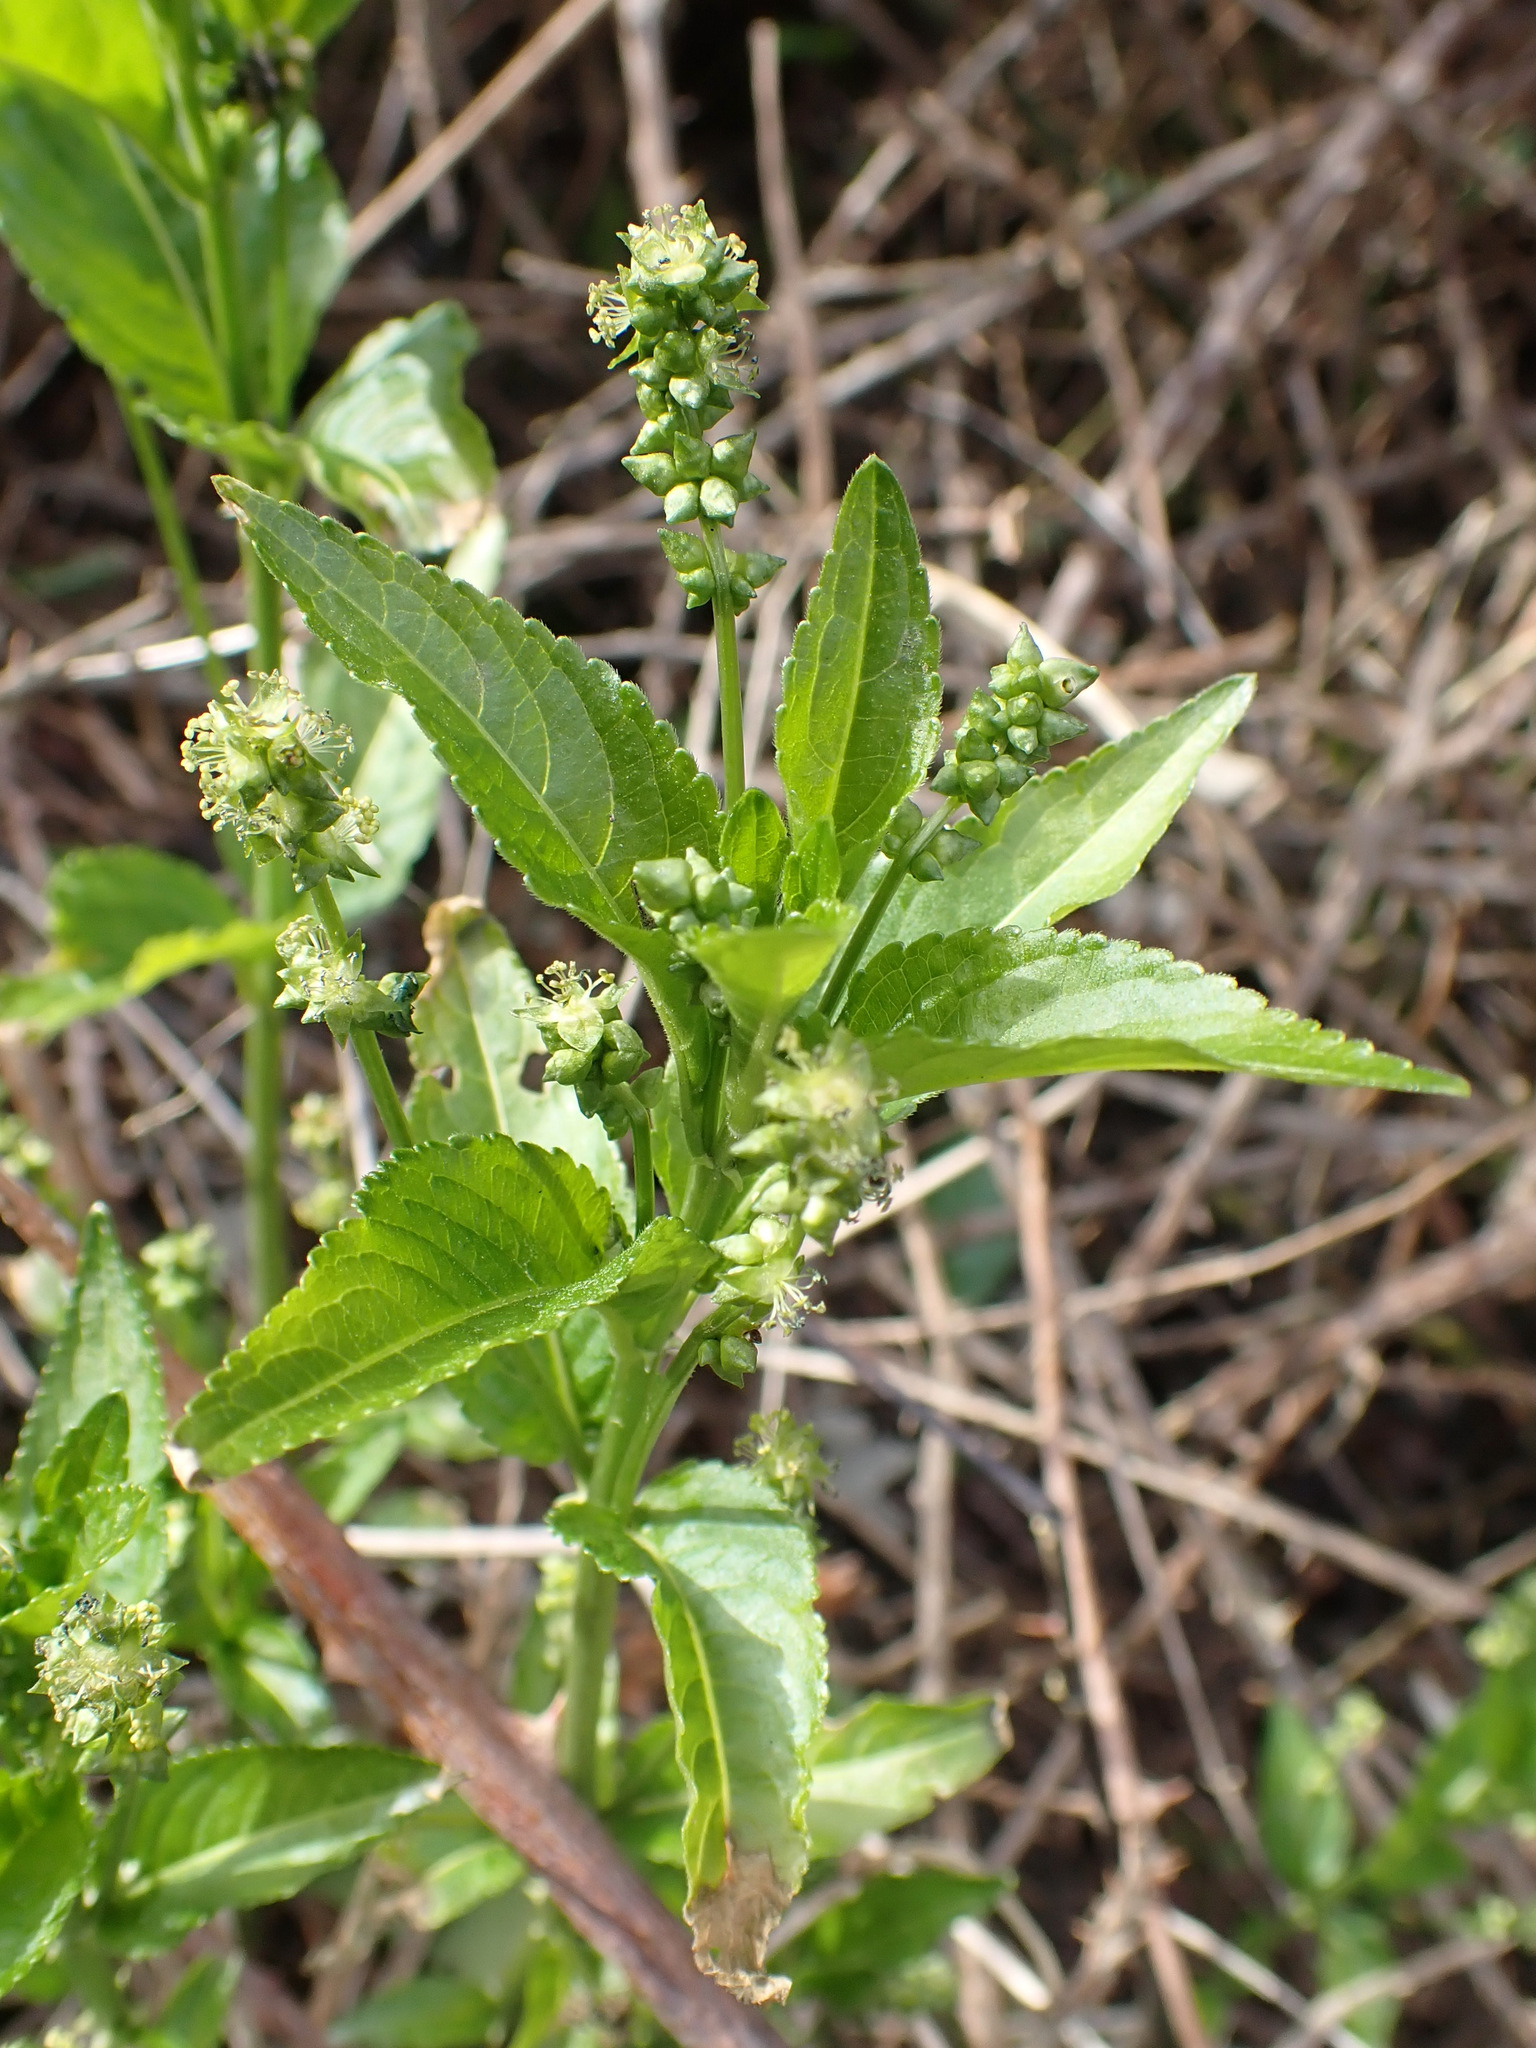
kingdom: Plantae
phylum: Tracheophyta
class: Magnoliopsida
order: Malpighiales
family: Euphorbiaceae
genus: Mercurialis
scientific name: Mercurialis perennis
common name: Dog mercury
